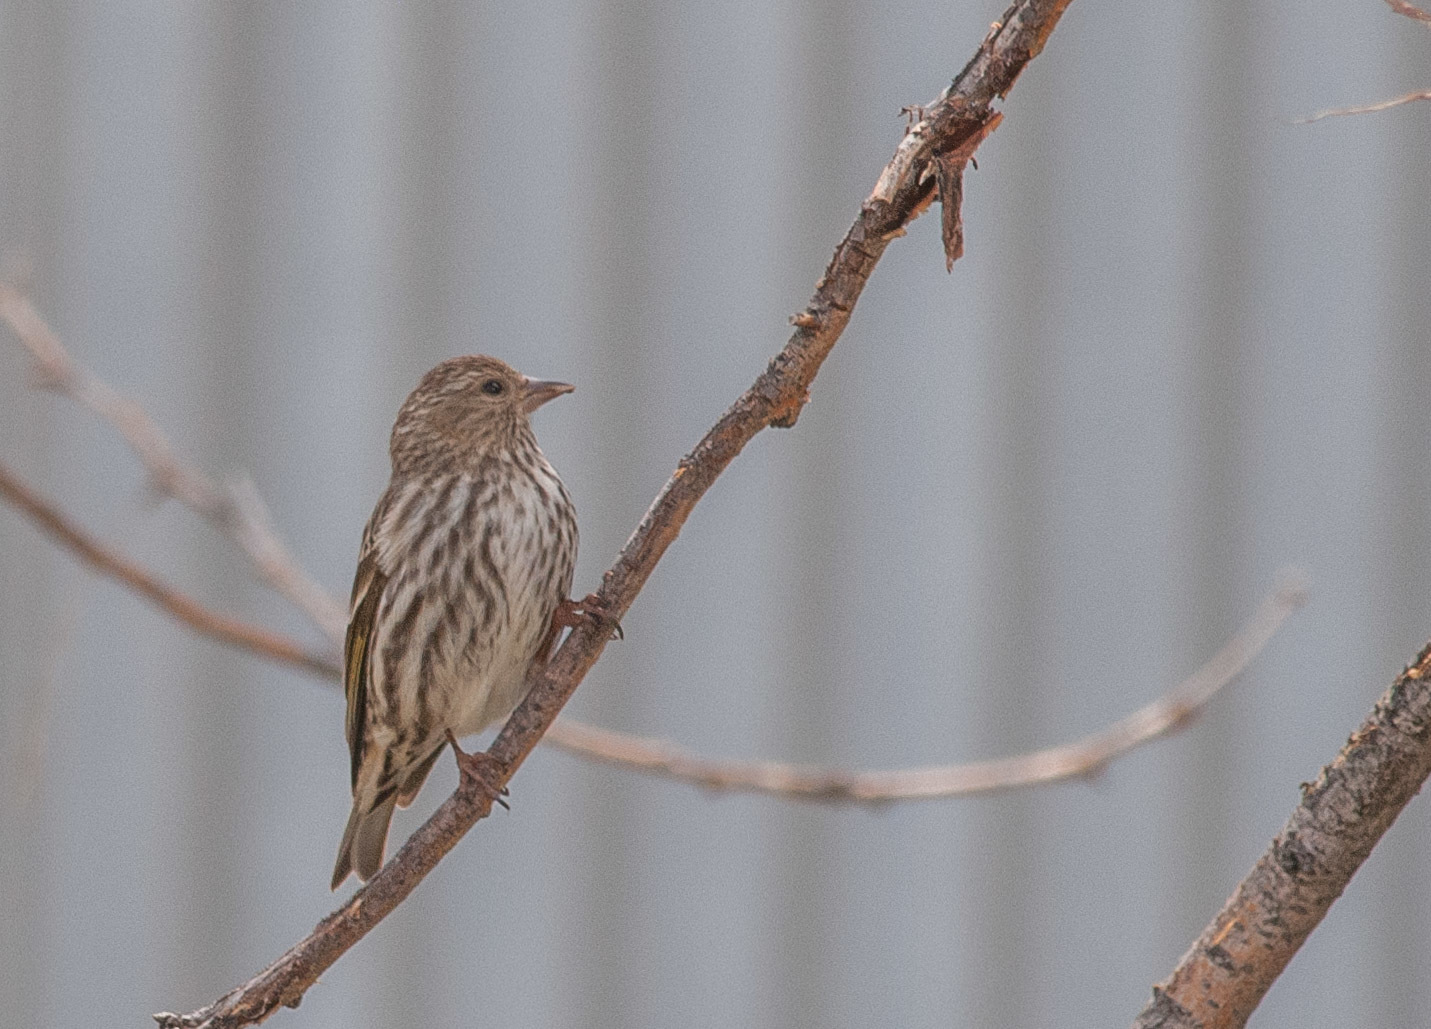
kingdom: Animalia
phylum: Chordata
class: Aves
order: Passeriformes
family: Fringillidae
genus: Spinus
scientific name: Spinus pinus
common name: Pine siskin
